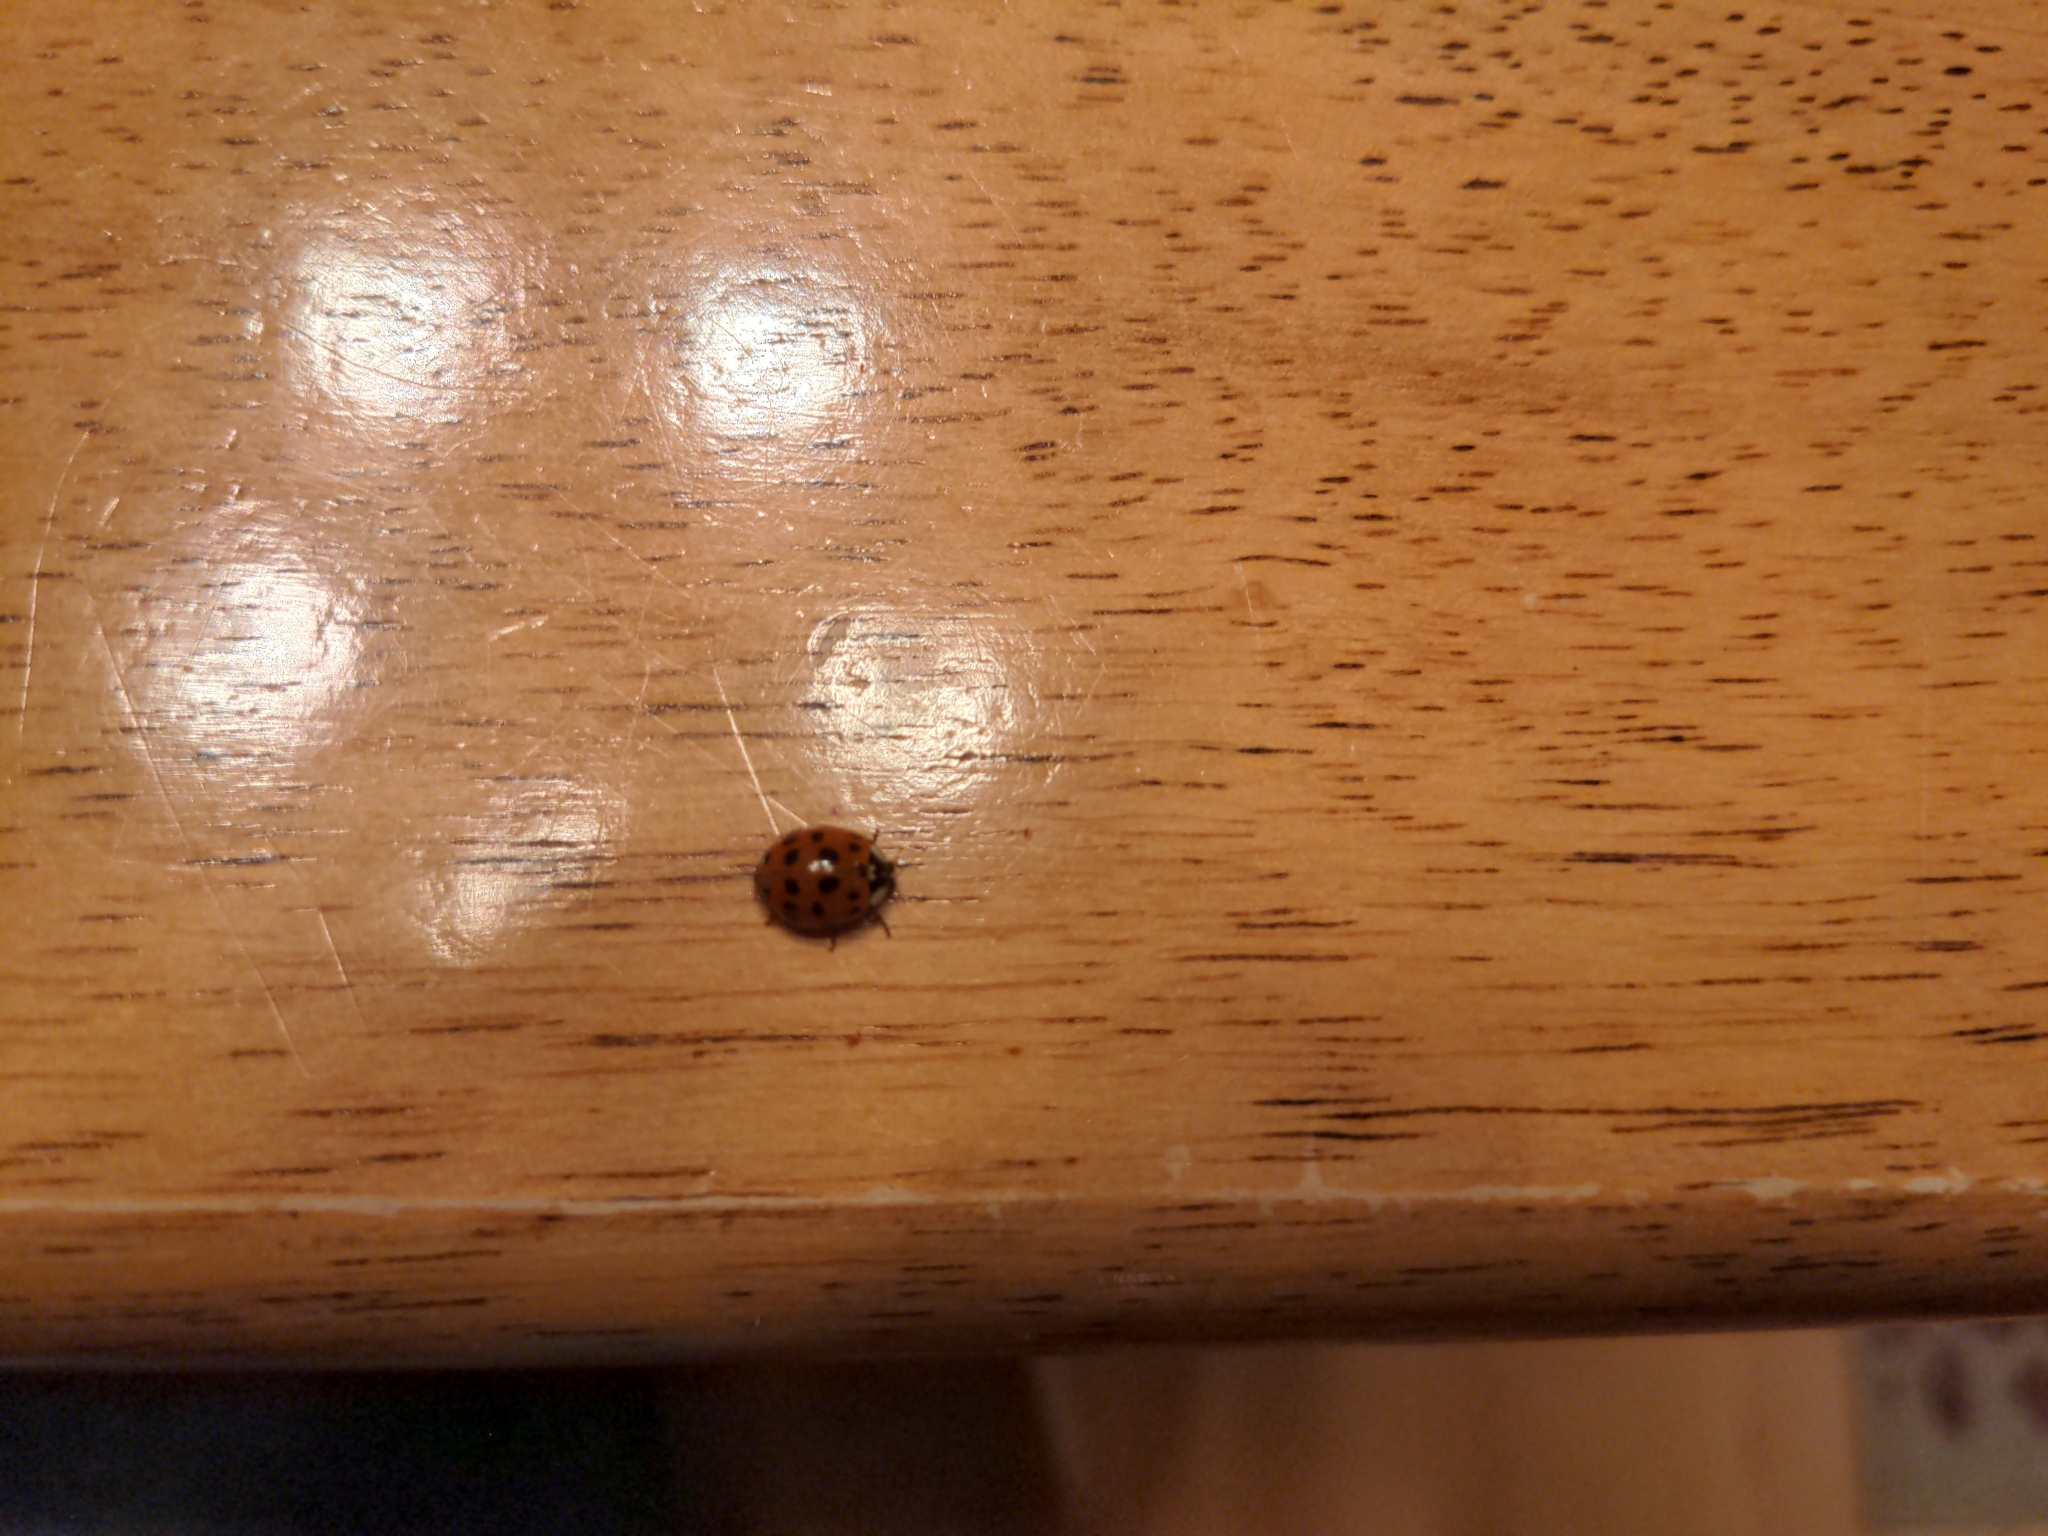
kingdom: Animalia
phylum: Arthropoda
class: Insecta
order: Coleoptera
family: Coccinellidae
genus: Harmonia
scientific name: Harmonia axyridis
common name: Harlequin ladybird
